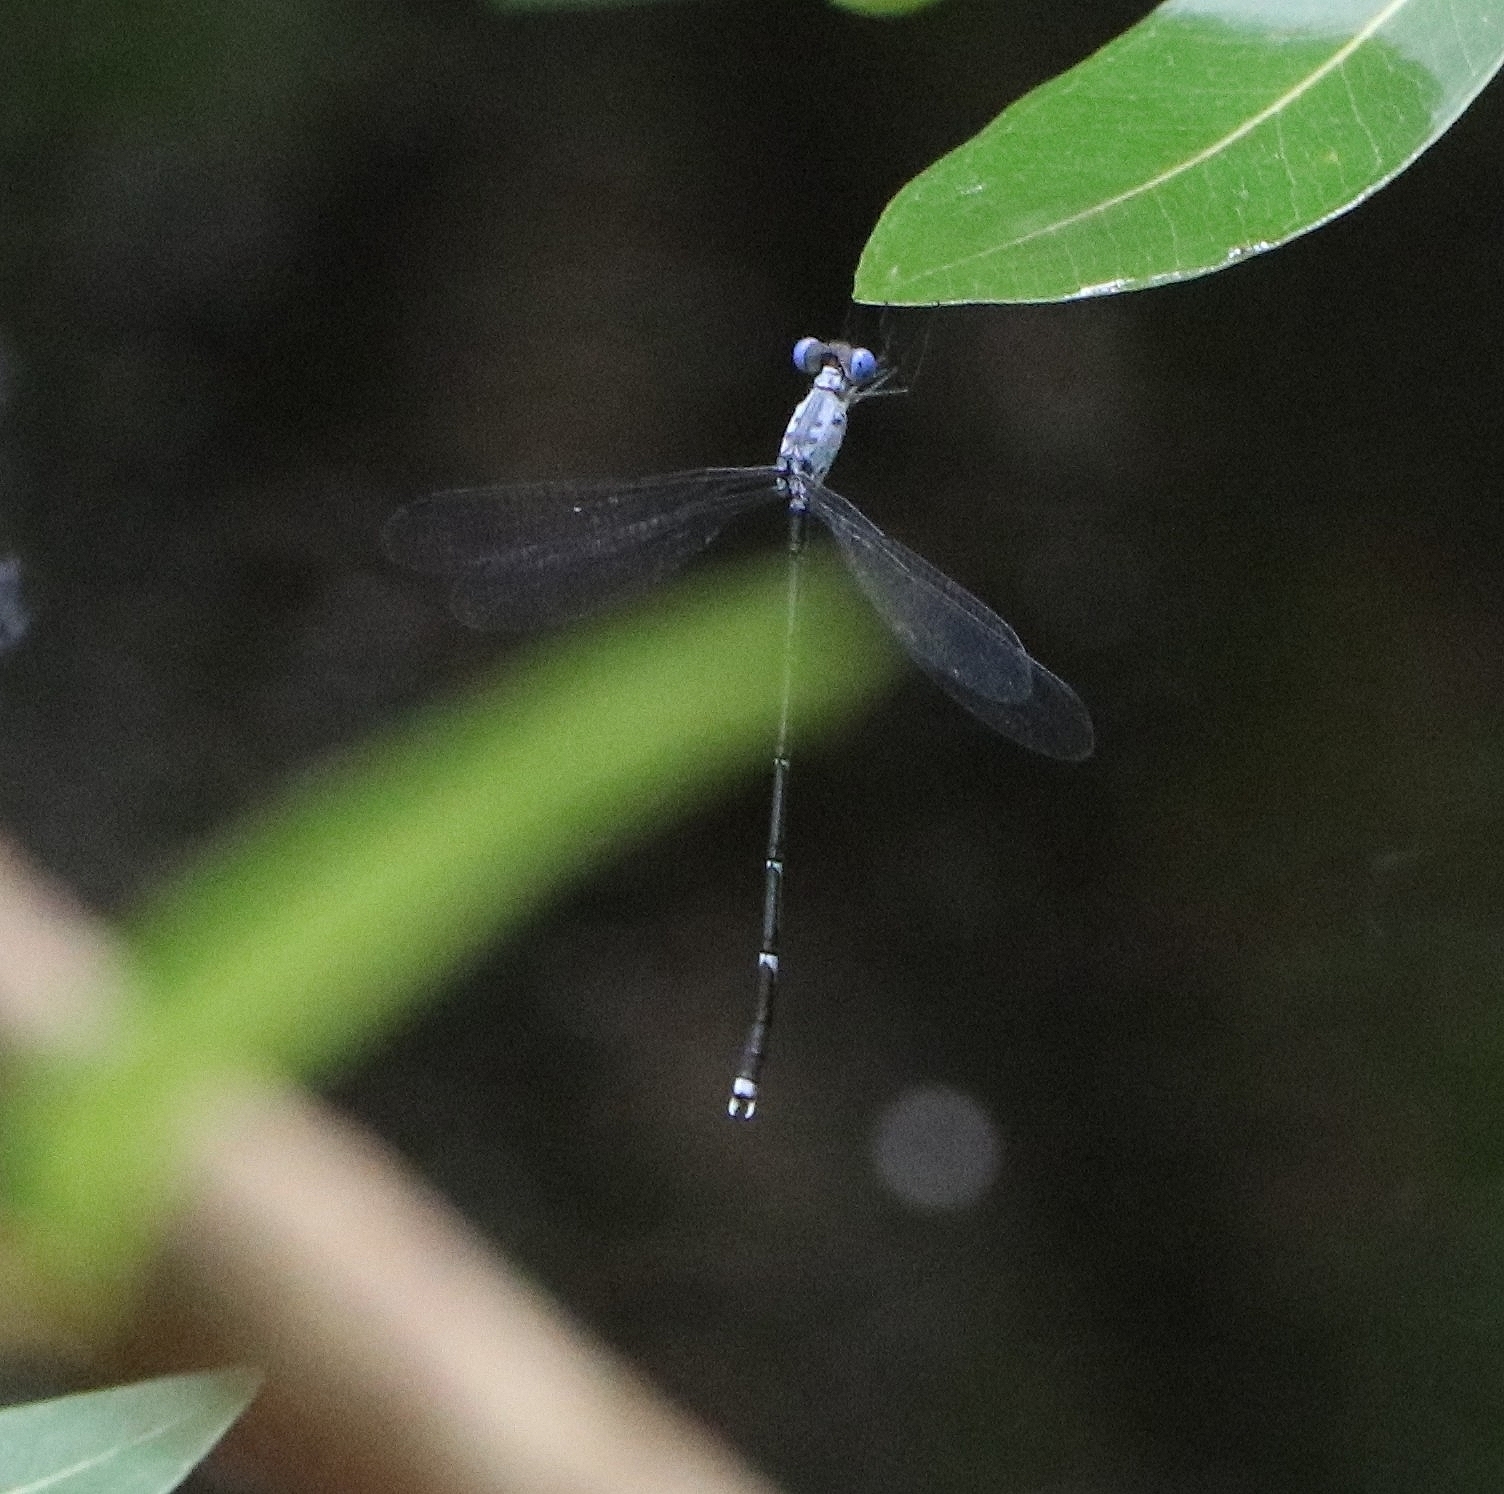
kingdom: Animalia
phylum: Arthropoda
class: Insecta
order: Odonata
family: Lestidae
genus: Lestes
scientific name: Lestes dorothea
